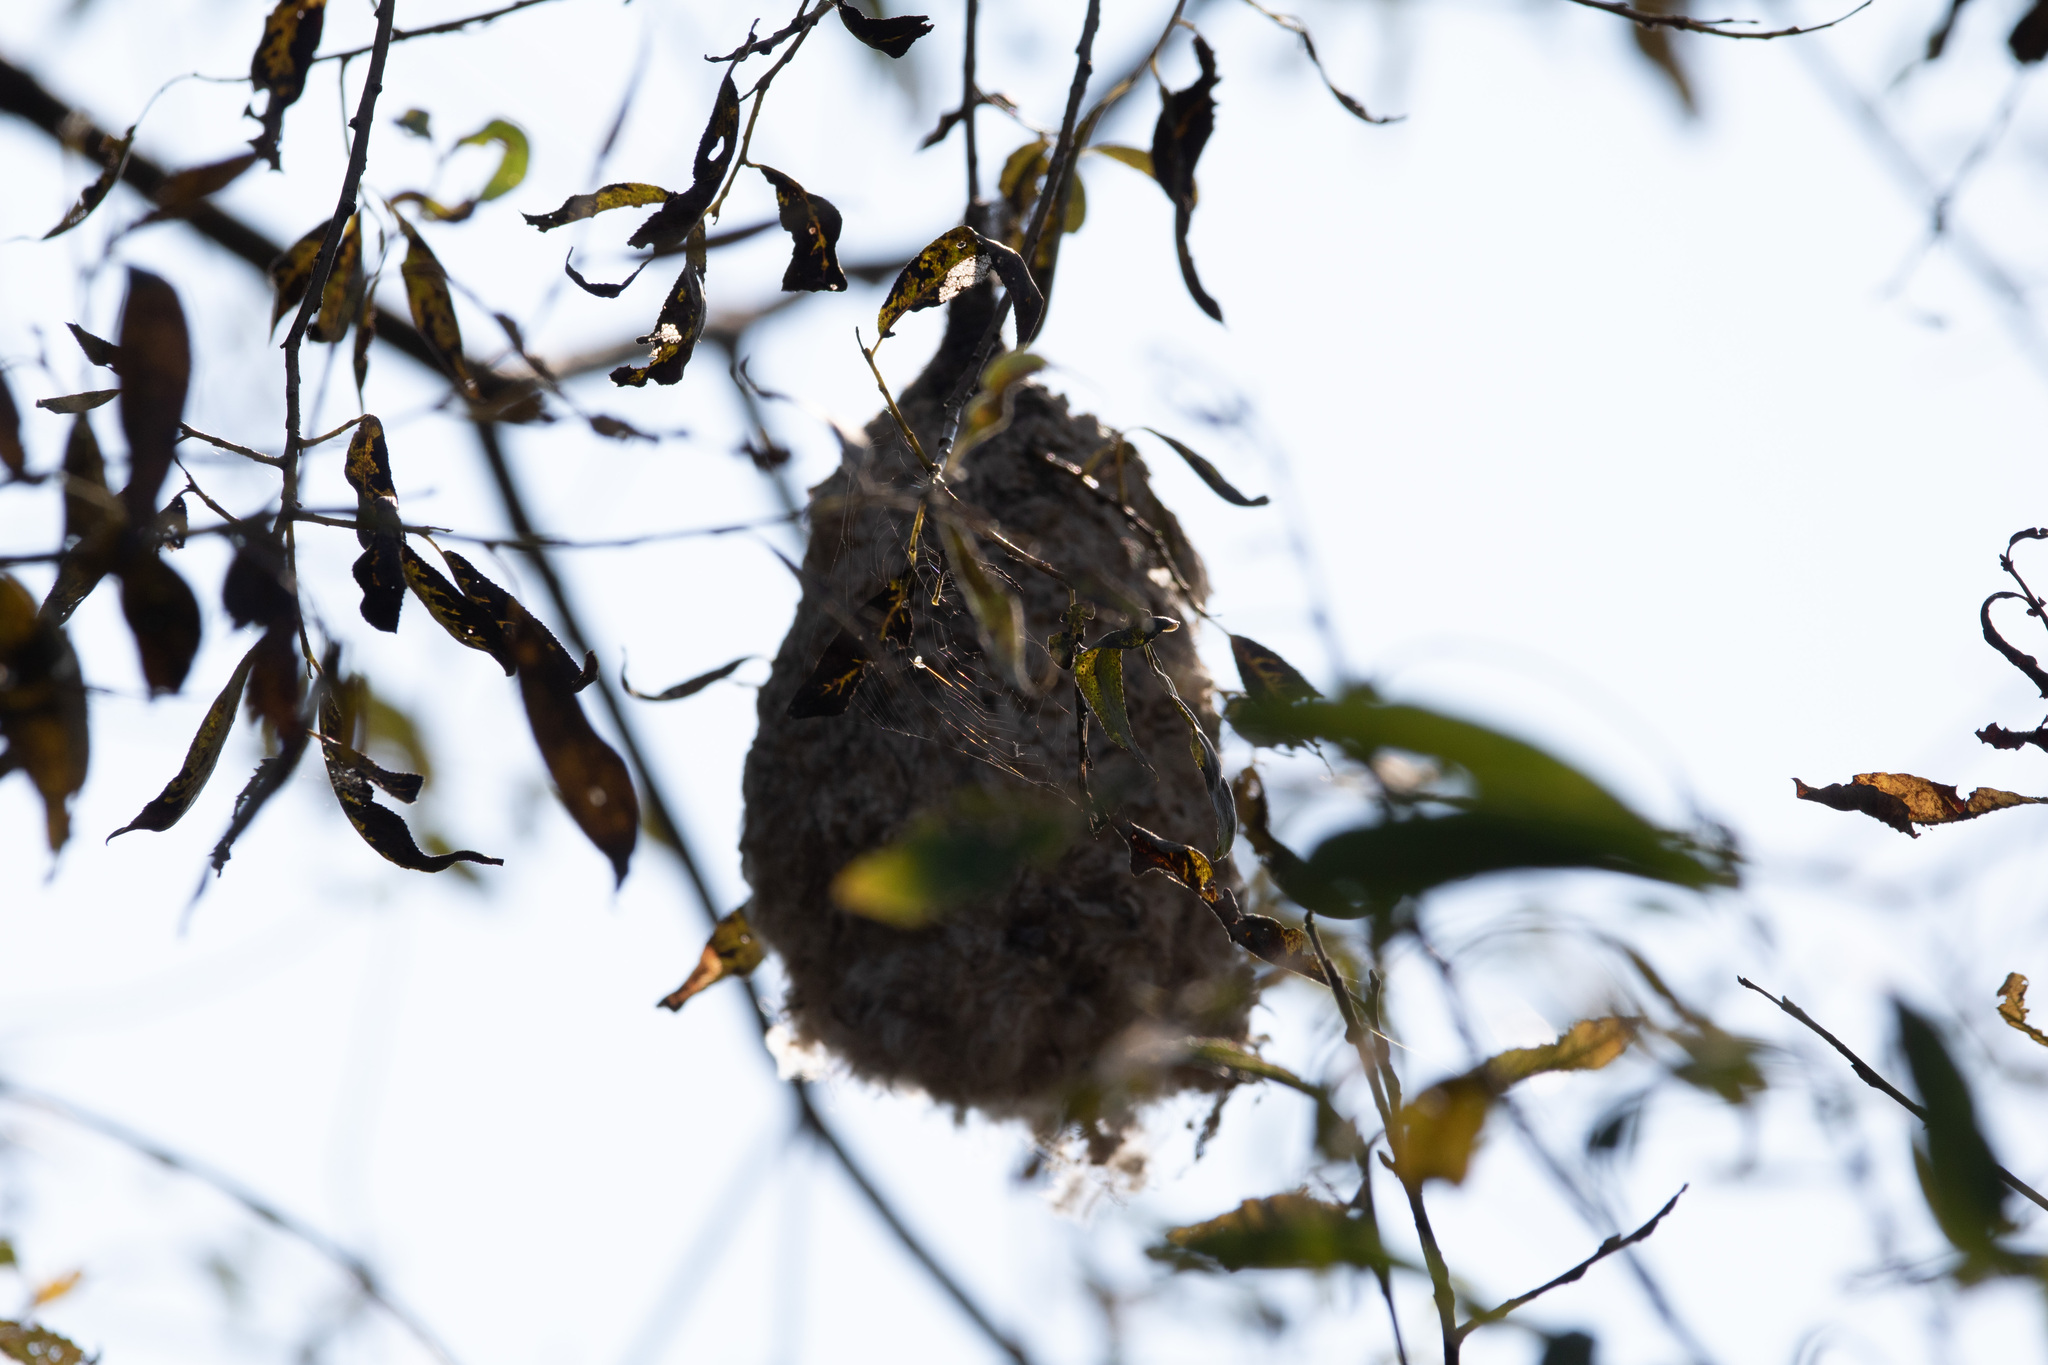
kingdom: Animalia
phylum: Chordata
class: Aves
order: Passeriformes
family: Remizidae
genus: Remiz
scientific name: Remiz pendulinus
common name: Eurasian penduline tit
